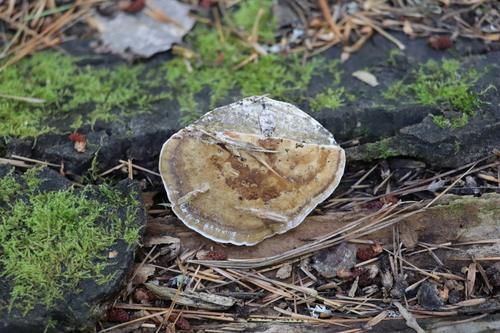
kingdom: Fungi
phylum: Basidiomycota
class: Agaricomycetes
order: Polyporales
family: Polyporaceae
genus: Daedaleopsis
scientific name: Daedaleopsis confragosa
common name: Blushing bracket
